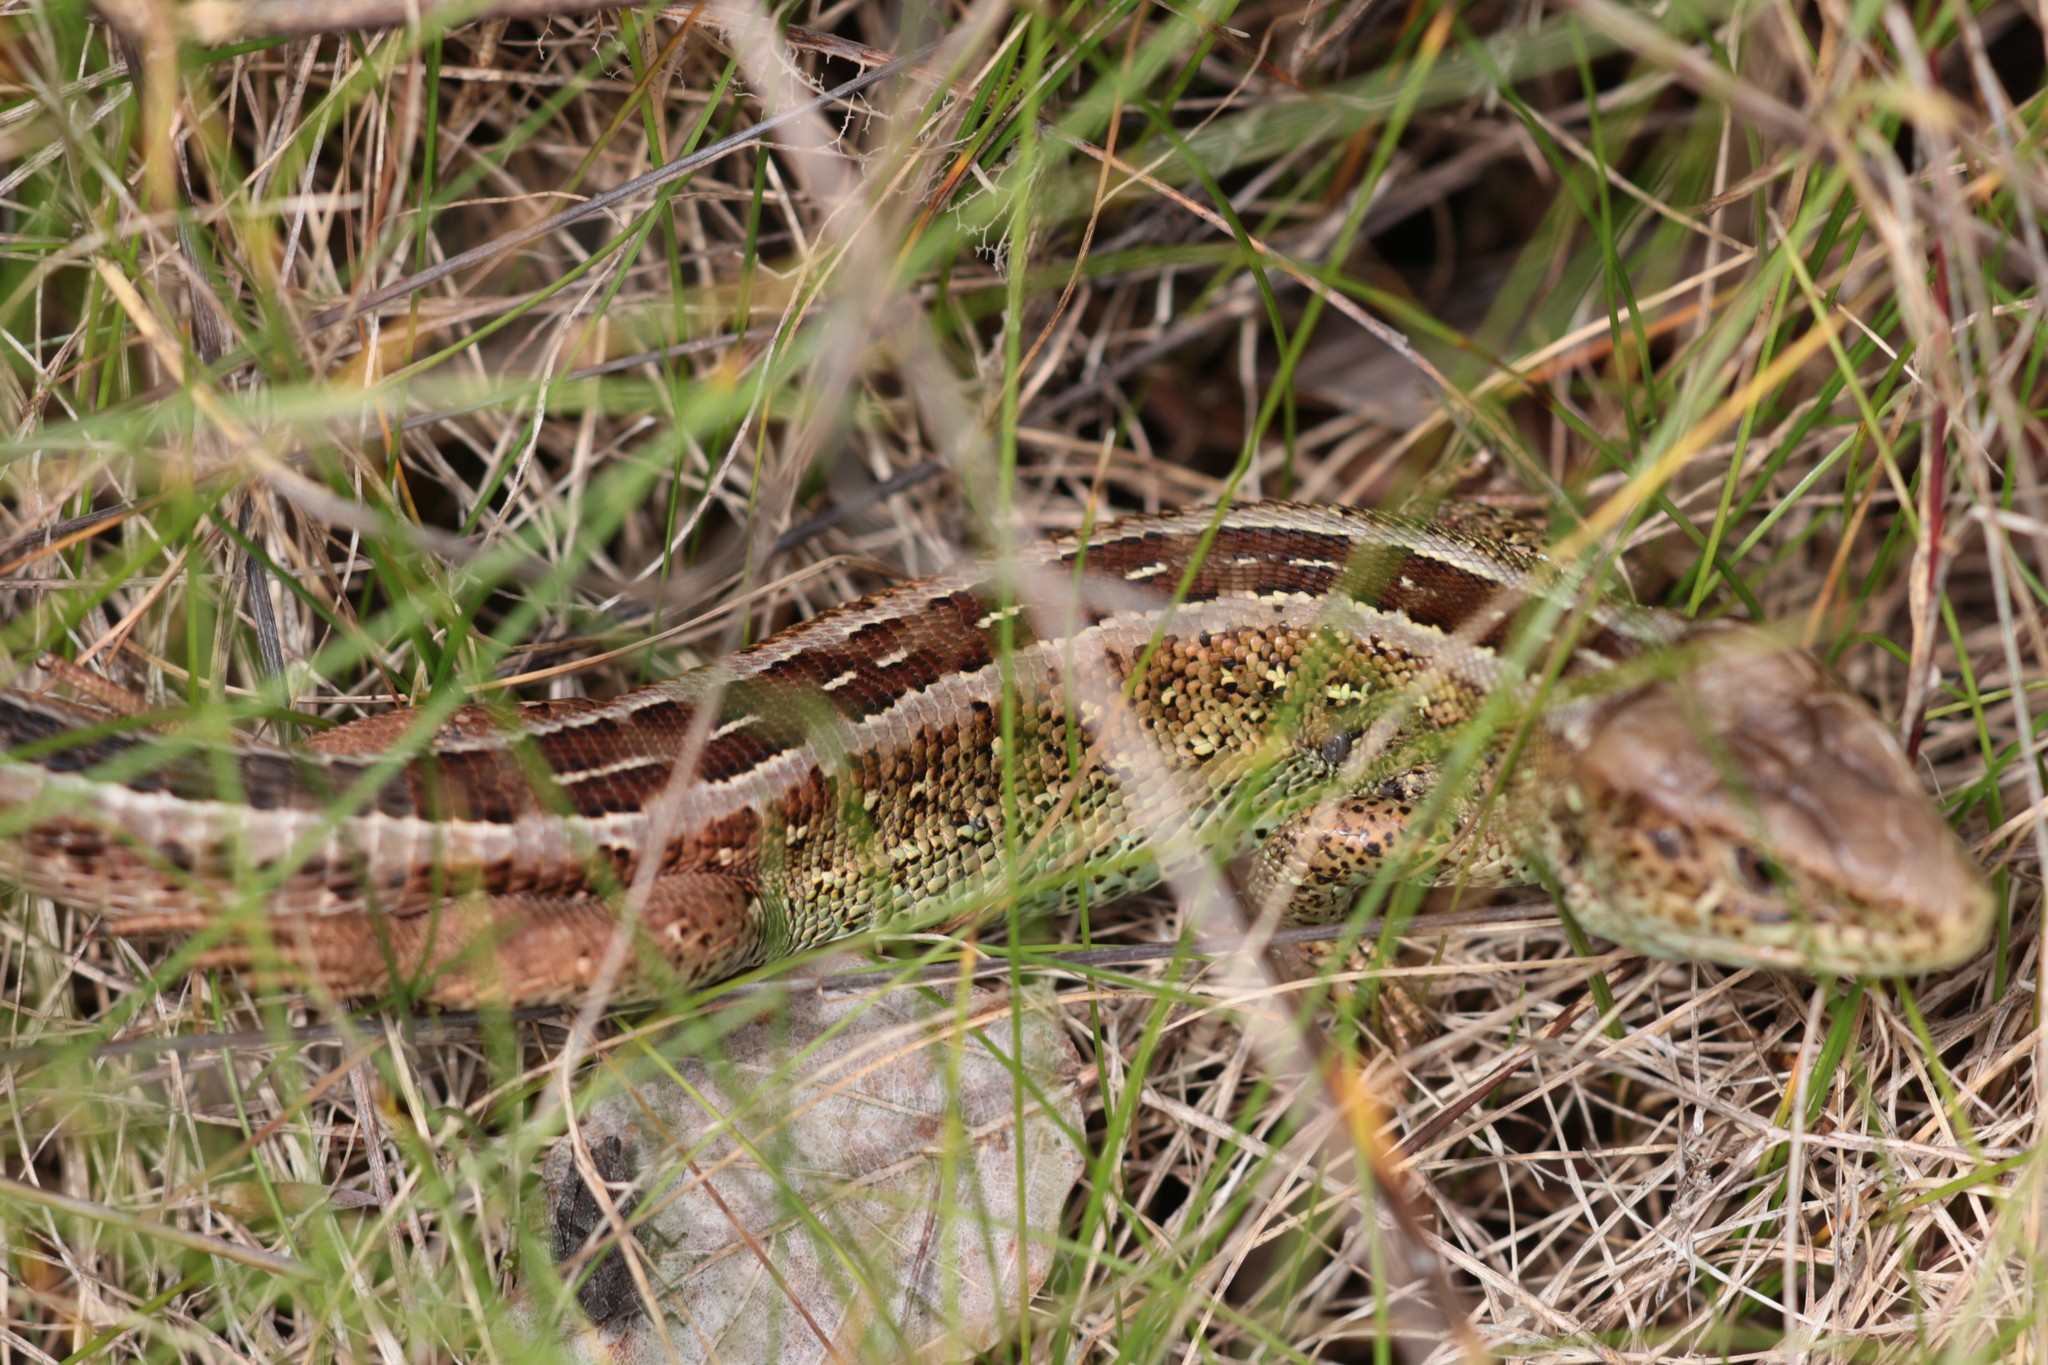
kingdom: Animalia
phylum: Chordata
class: Squamata
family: Lacertidae
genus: Lacerta
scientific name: Lacerta agilis
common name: Sand lizard
